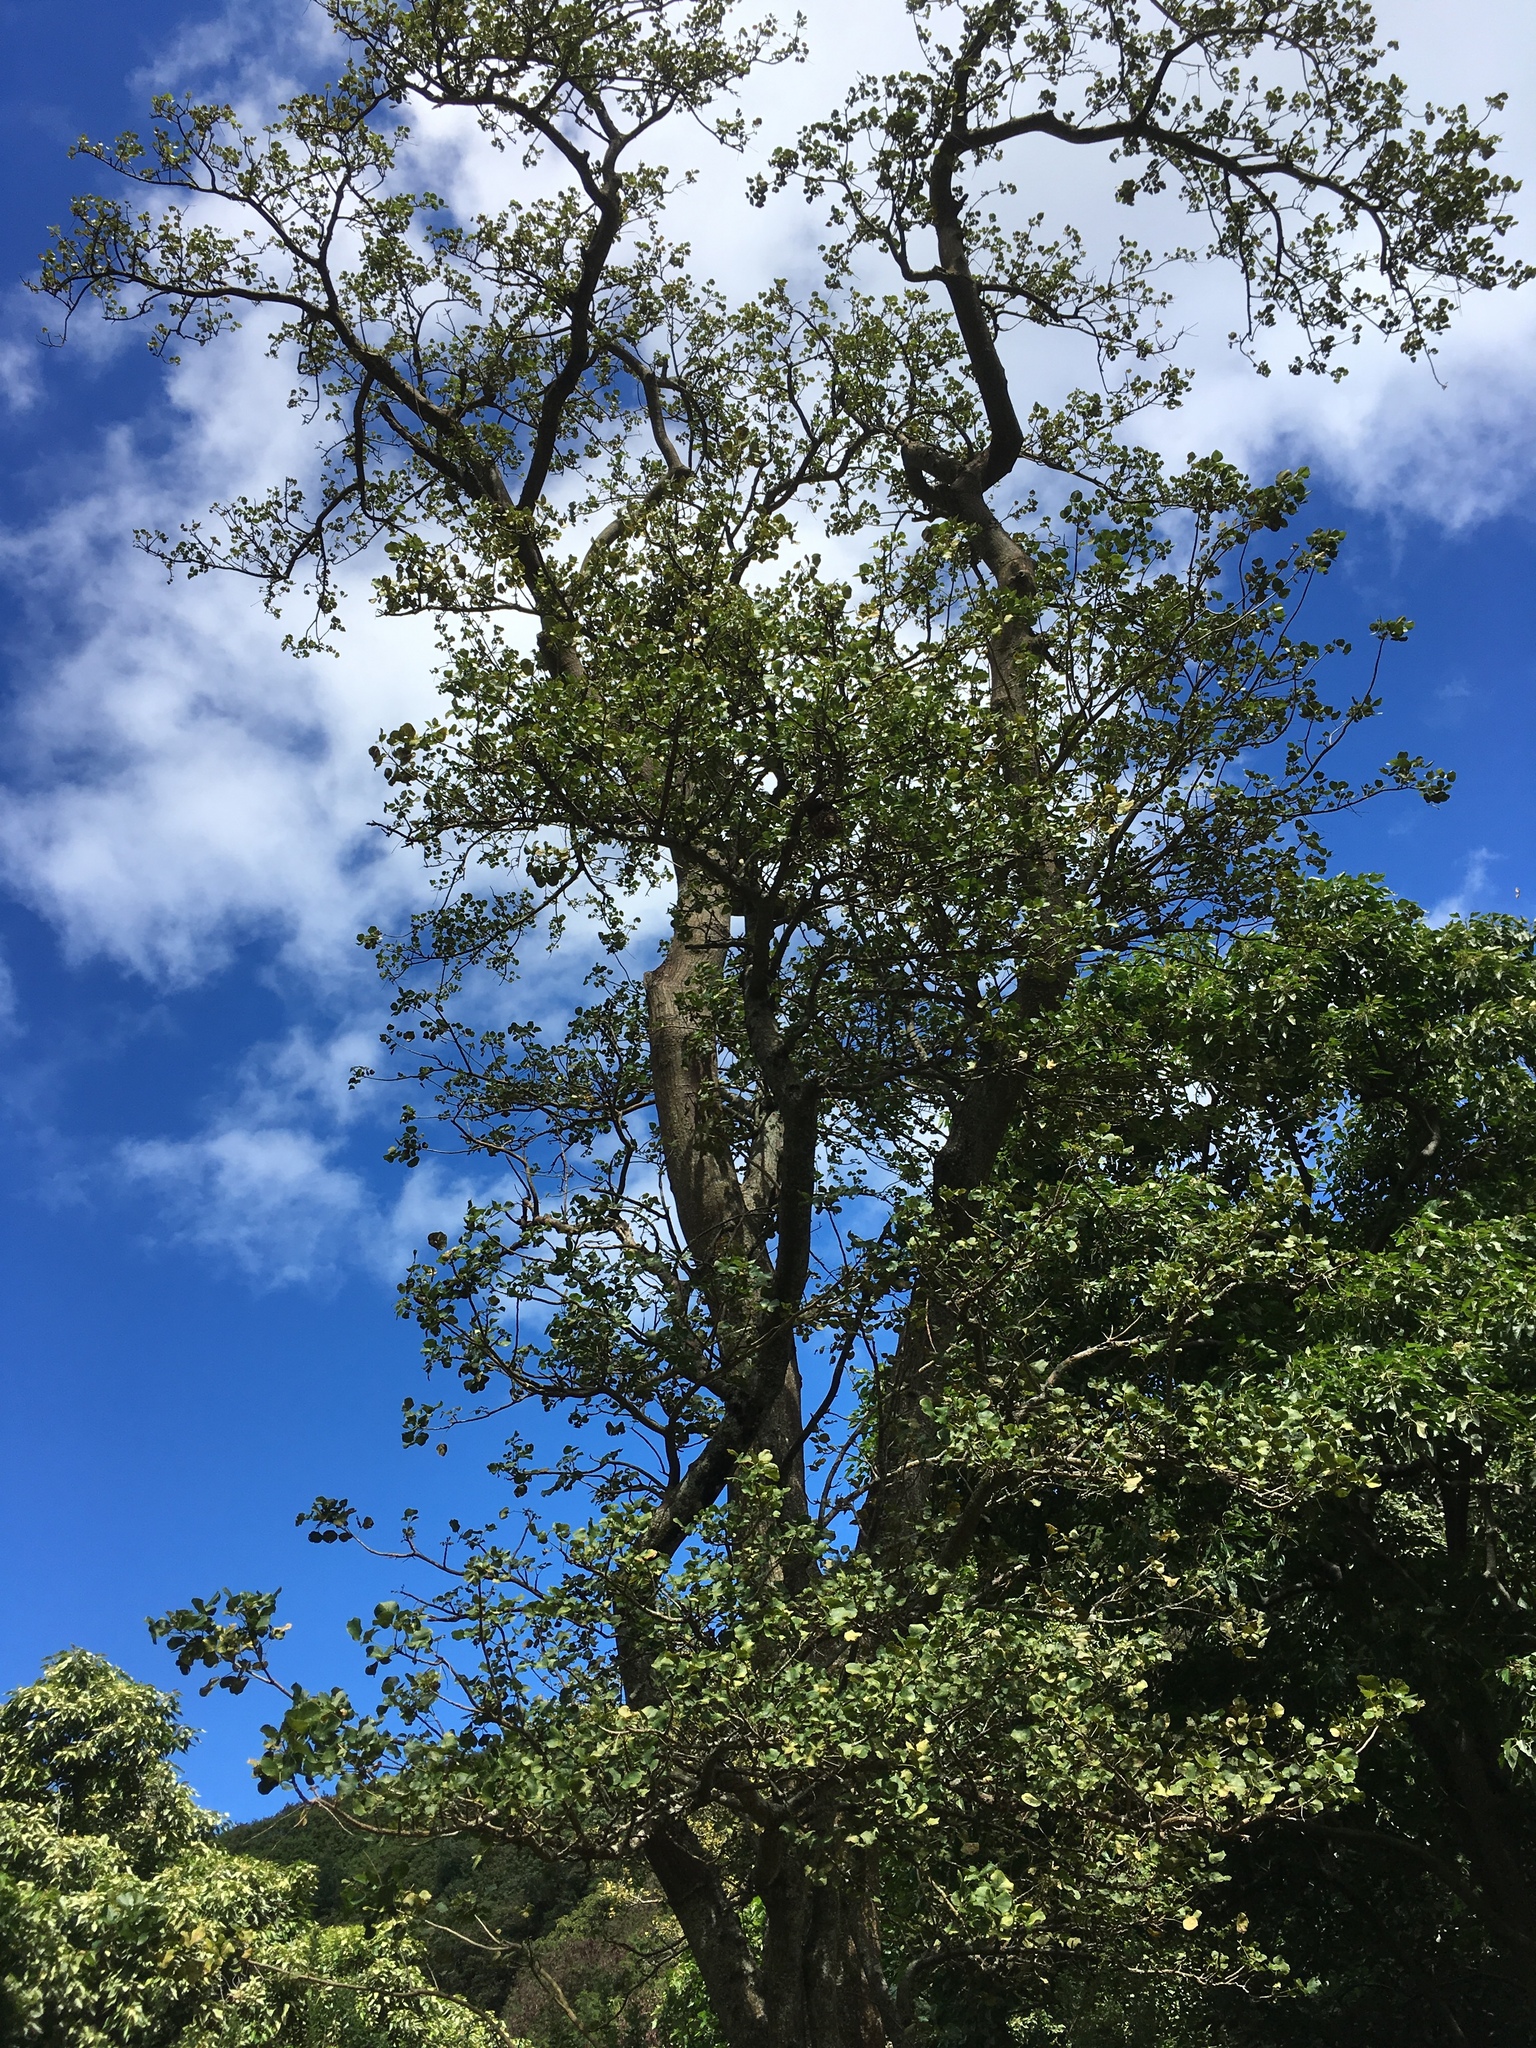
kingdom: Plantae
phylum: Tracheophyta
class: Magnoliopsida
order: Fabales
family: Fabaceae
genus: Erythrina
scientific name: Erythrina sandwicensis
